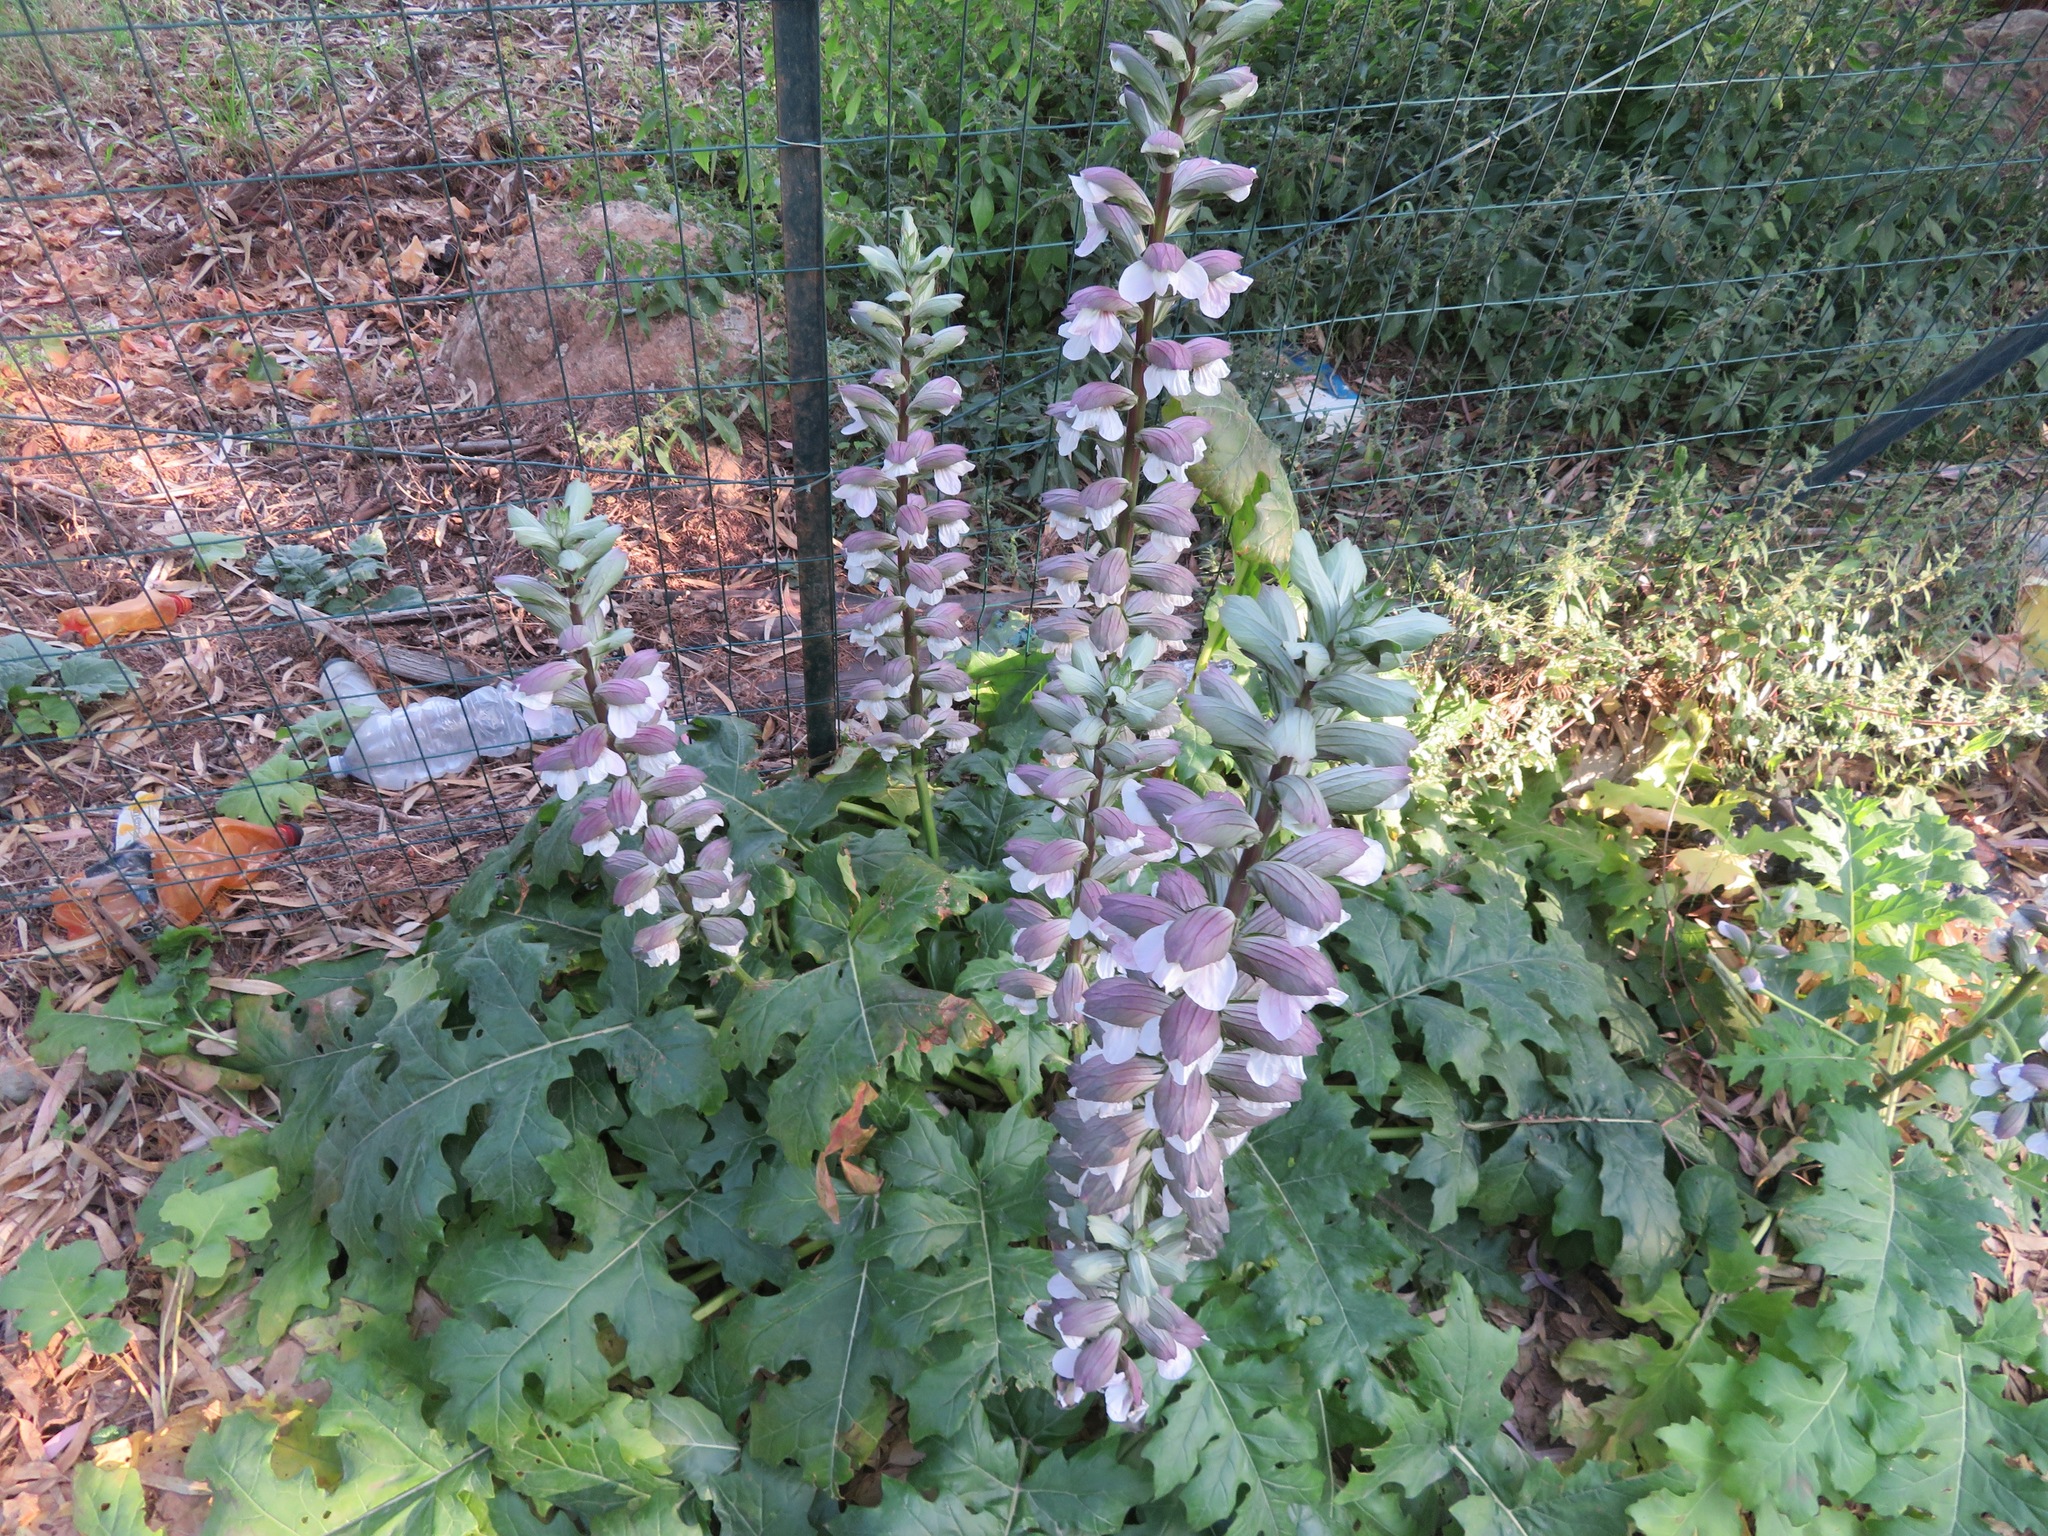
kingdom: Plantae
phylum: Tracheophyta
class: Magnoliopsida
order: Lamiales
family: Acanthaceae
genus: Acanthus
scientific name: Acanthus mollis
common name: Bear's-breech
